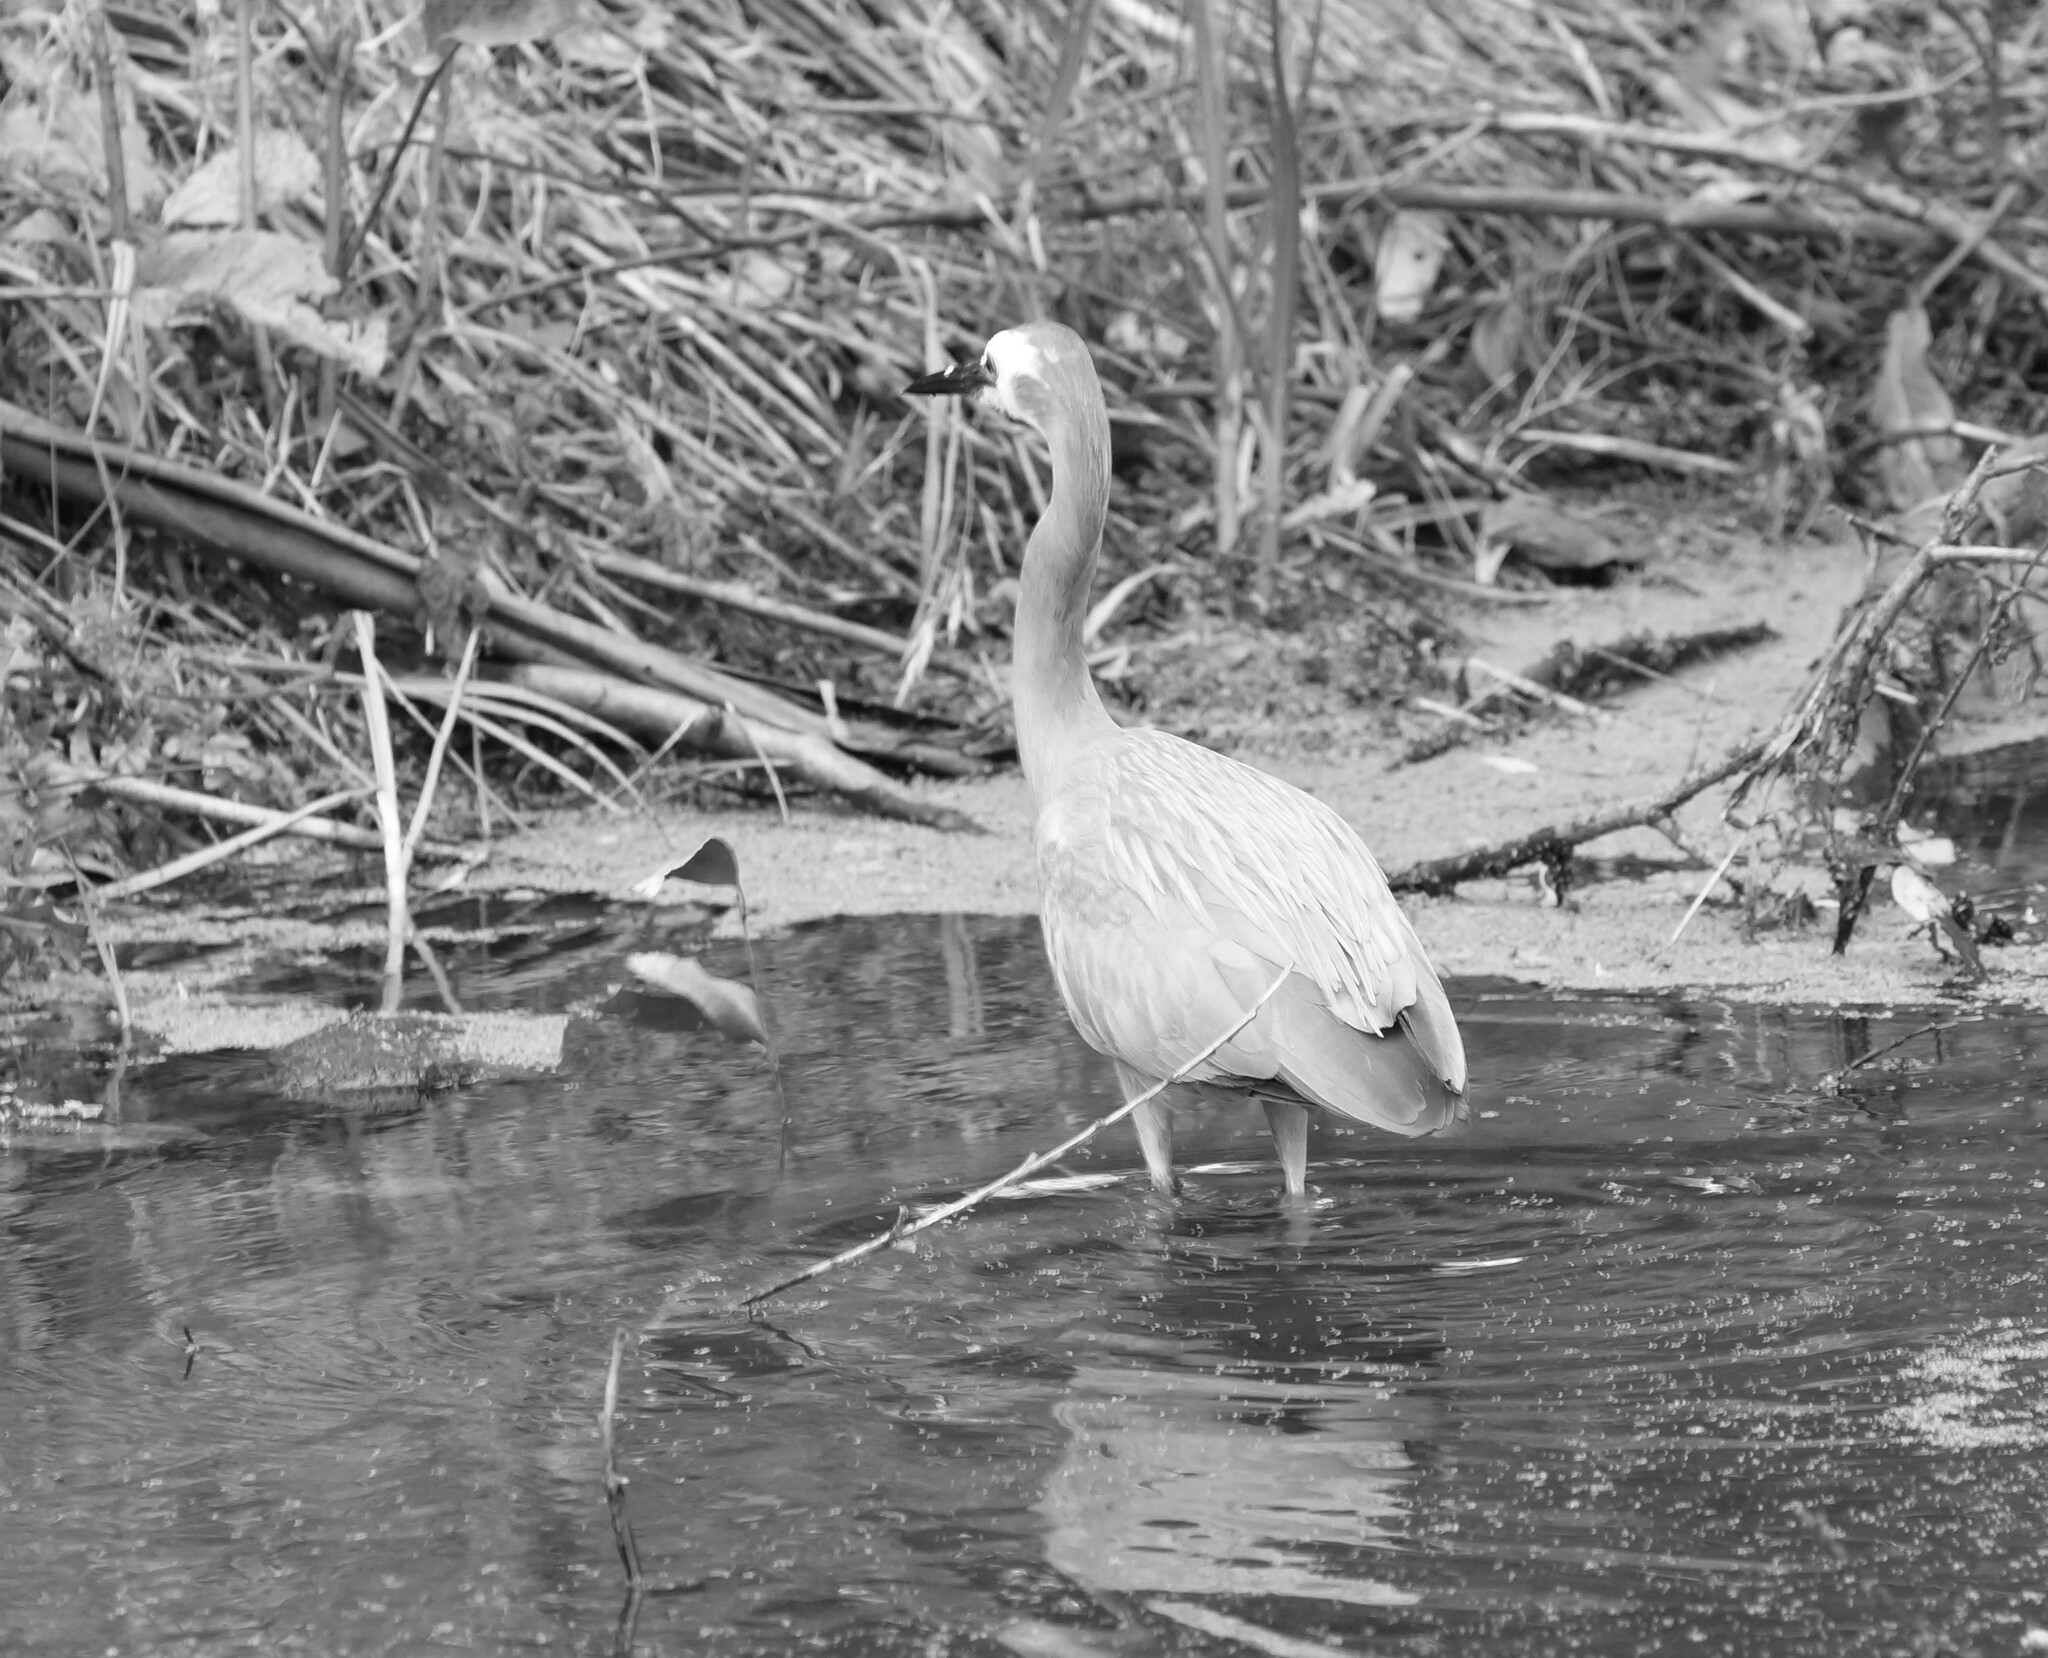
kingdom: Animalia
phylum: Chordata
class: Aves
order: Pelecaniformes
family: Ardeidae
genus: Egretta
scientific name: Egretta novaehollandiae
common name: White-faced heron
